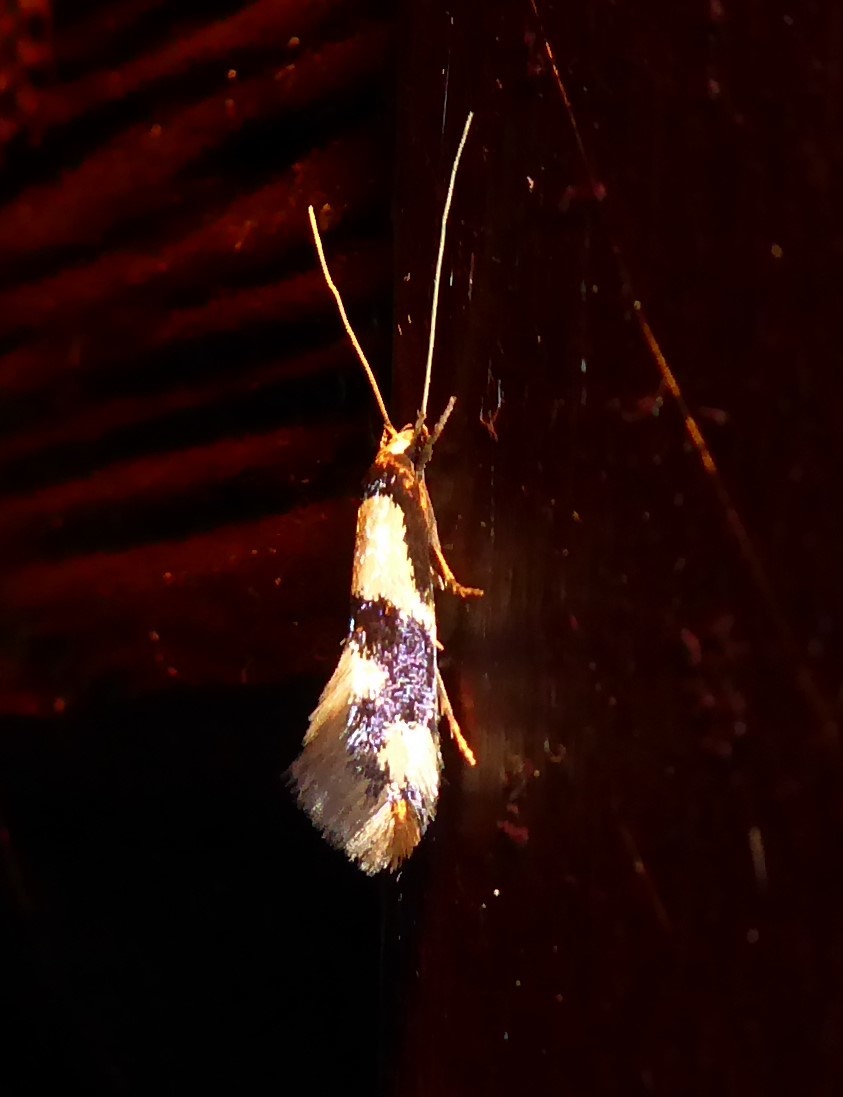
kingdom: Animalia
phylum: Arthropoda
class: Insecta
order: Lepidoptera
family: Tineidae
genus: Opogona
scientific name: Opogona comptella
